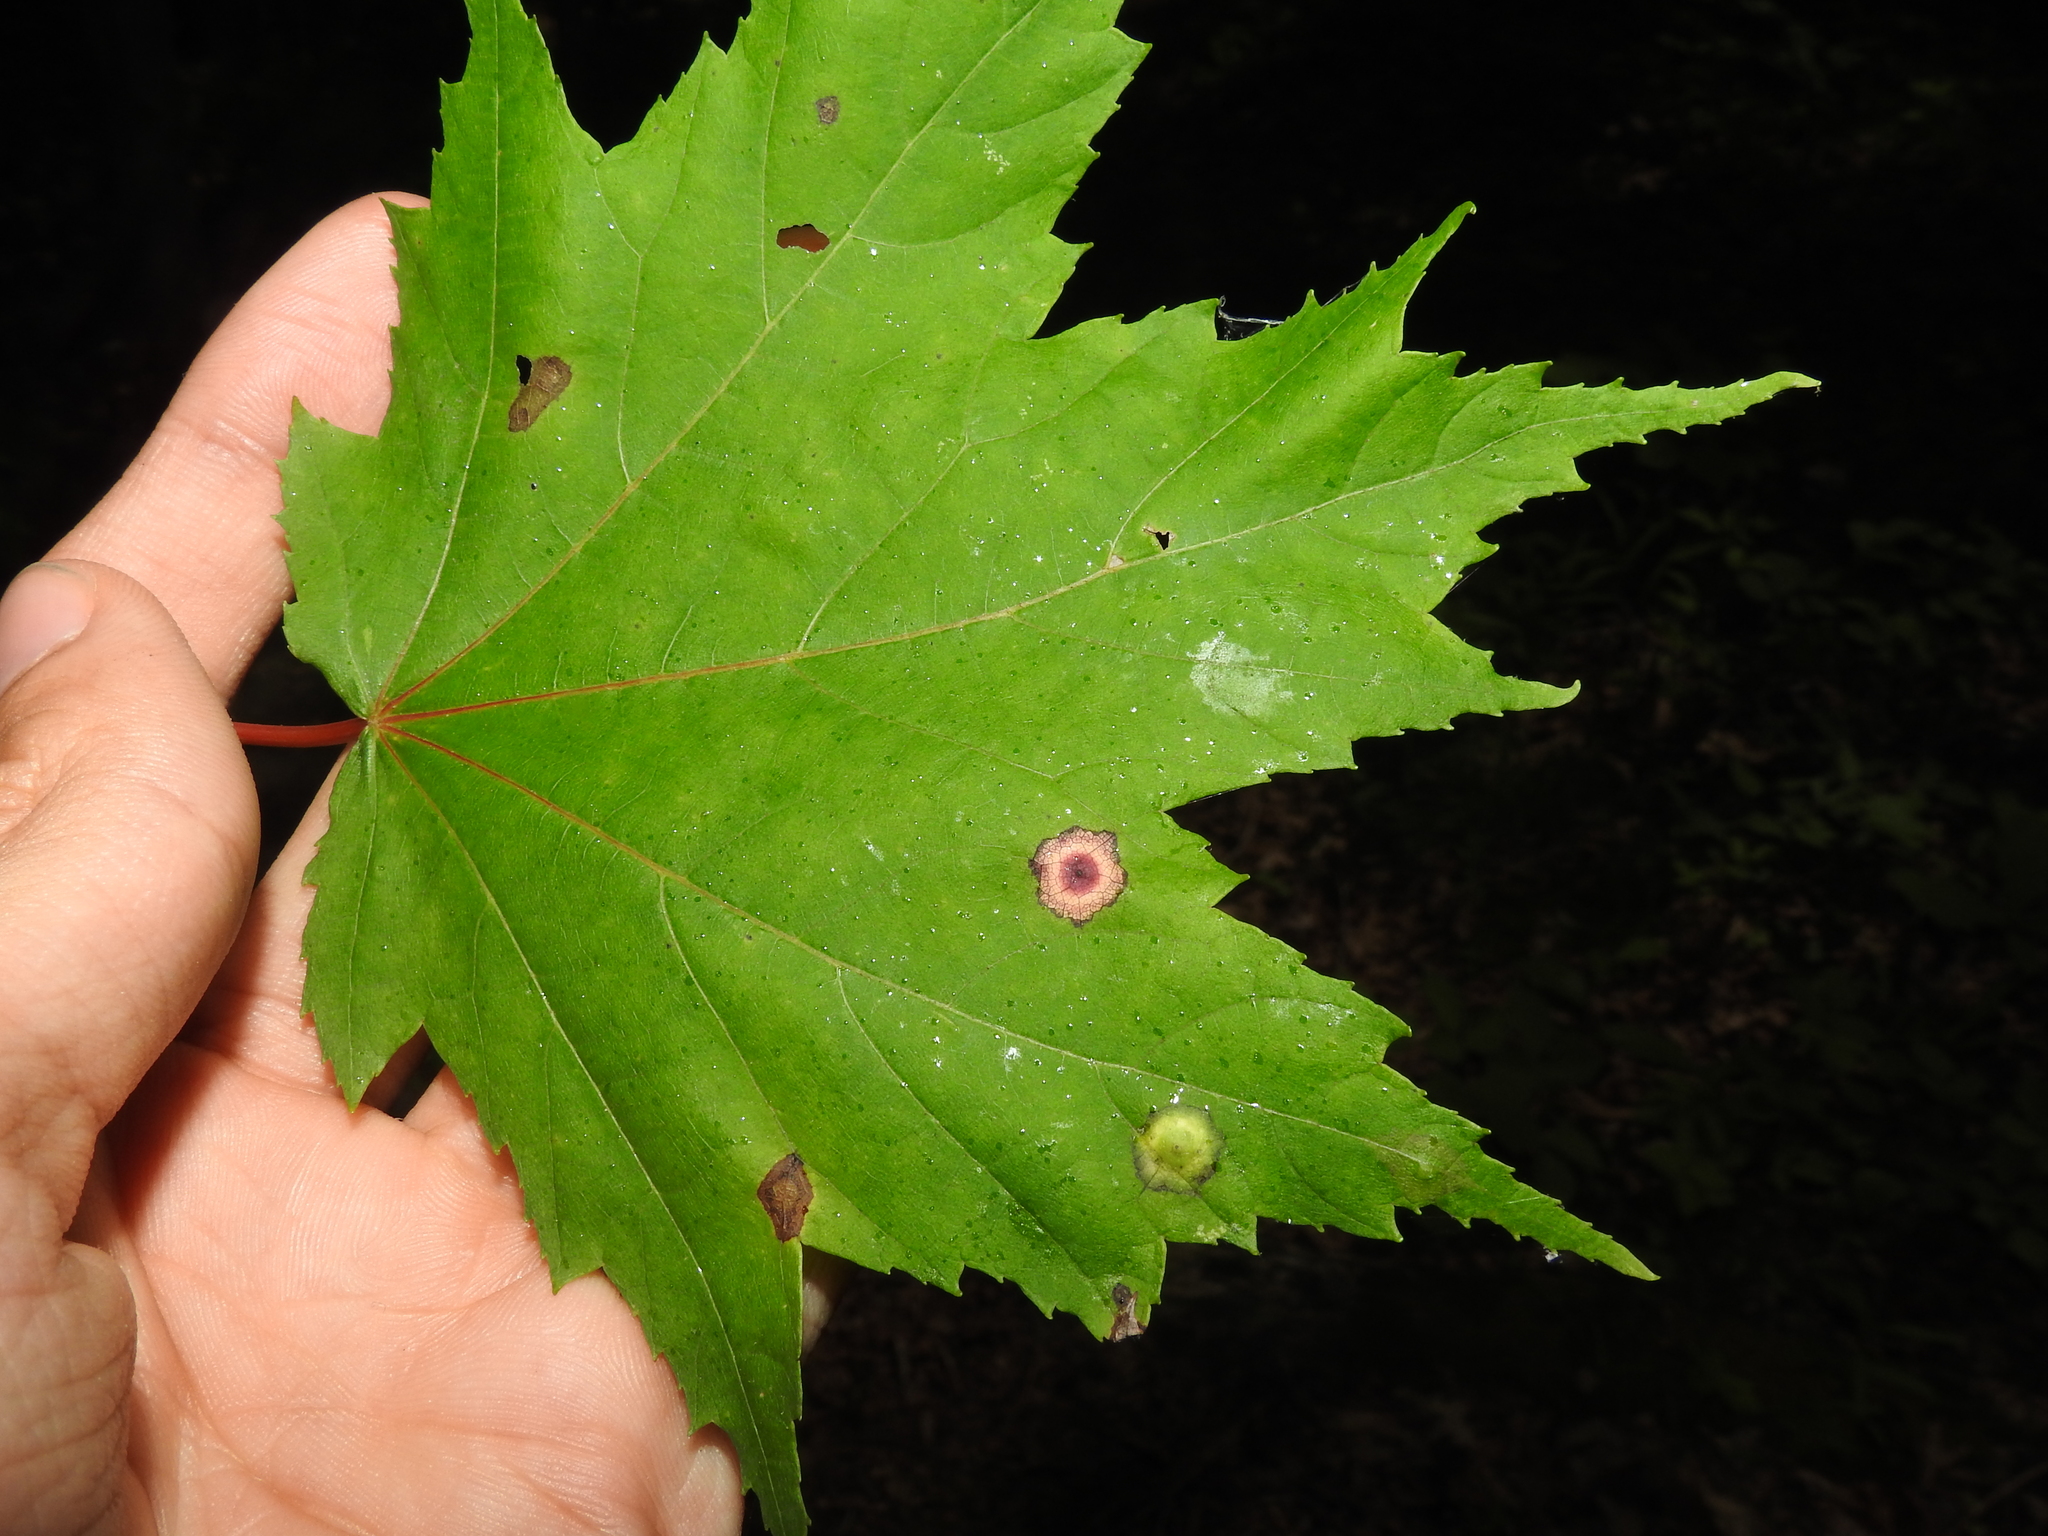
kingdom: Animalia
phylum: Arthropoda
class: Insecta
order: Diptera
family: Cecidomyiidae
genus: Acericecis
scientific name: Acericecis ocellaris
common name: Ocellate gall midge
